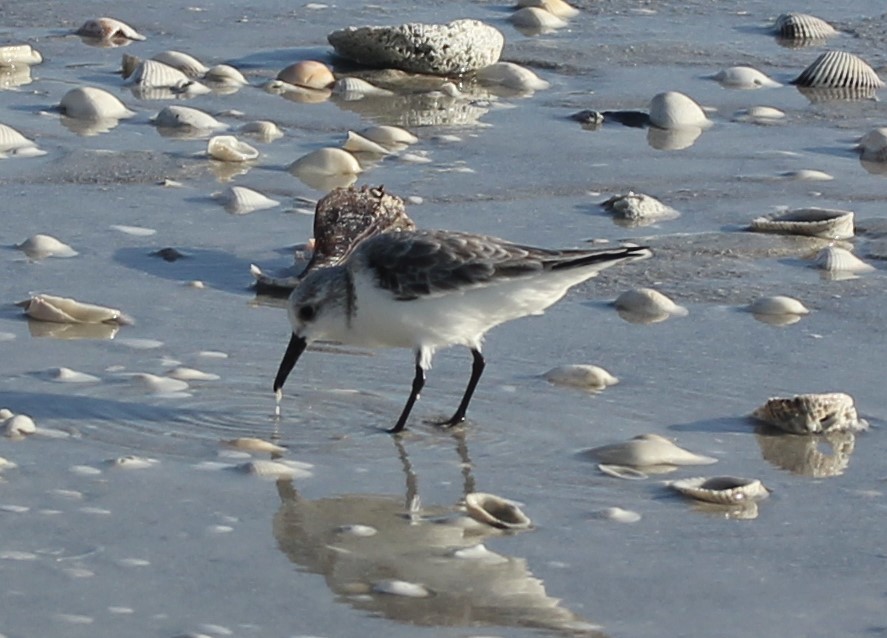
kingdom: Animalia
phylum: Chordata
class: Aves
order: Charadriiformes
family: Scolopacidae
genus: Calidris
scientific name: Calidris alba
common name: Sanderling
